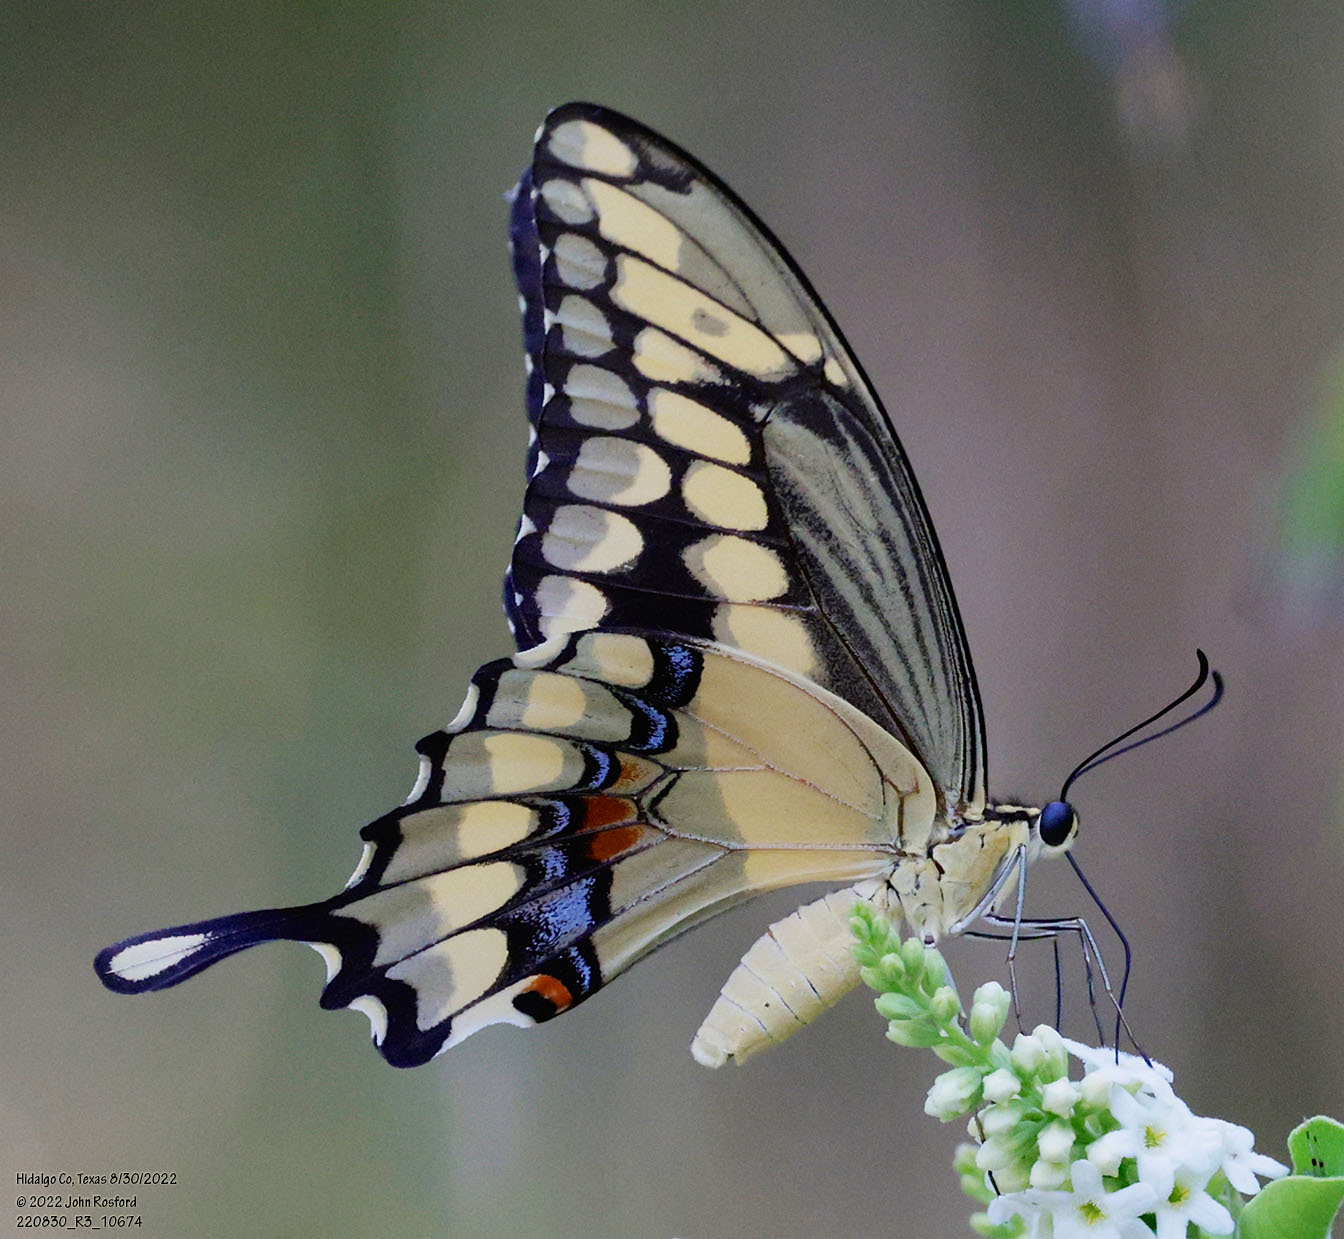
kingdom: Animalia
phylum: Arthropoda
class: Insecta
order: Lepidoptera
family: Papilionidae
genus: Papilio
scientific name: Papilio rumiko
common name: Western giant swallowtail
